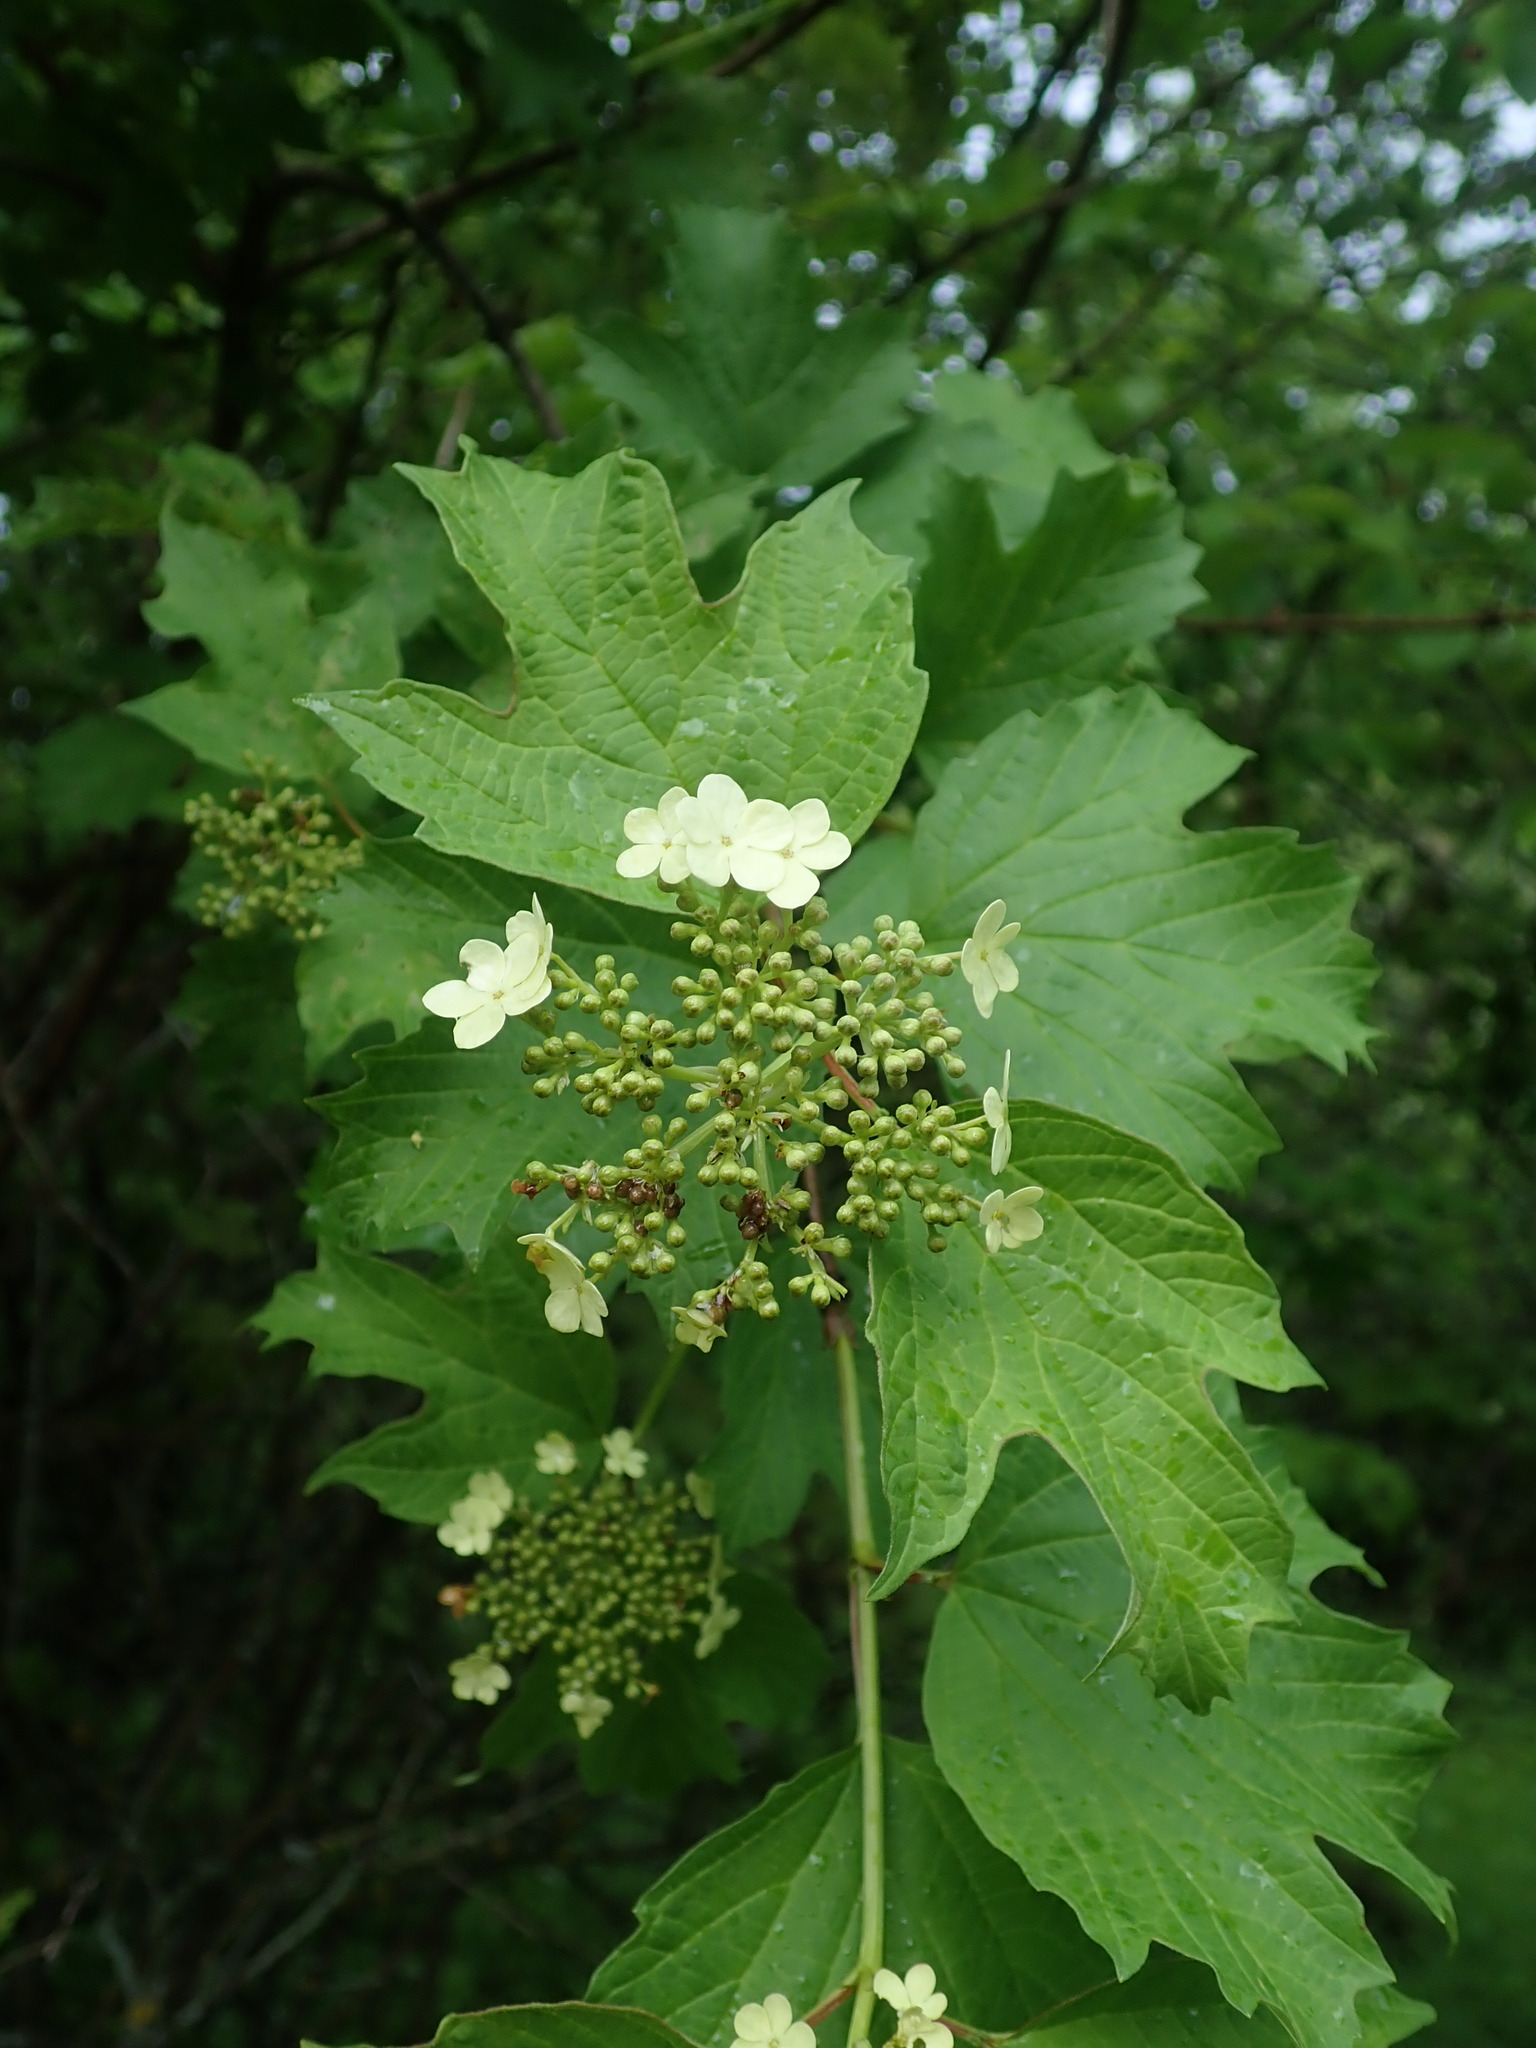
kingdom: Plantae
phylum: Tracheophyta
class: Magnoliopsida
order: Dipsacales
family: Viburnaceae
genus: Viburnum
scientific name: Viburnum opulus
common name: Guelder-rose
